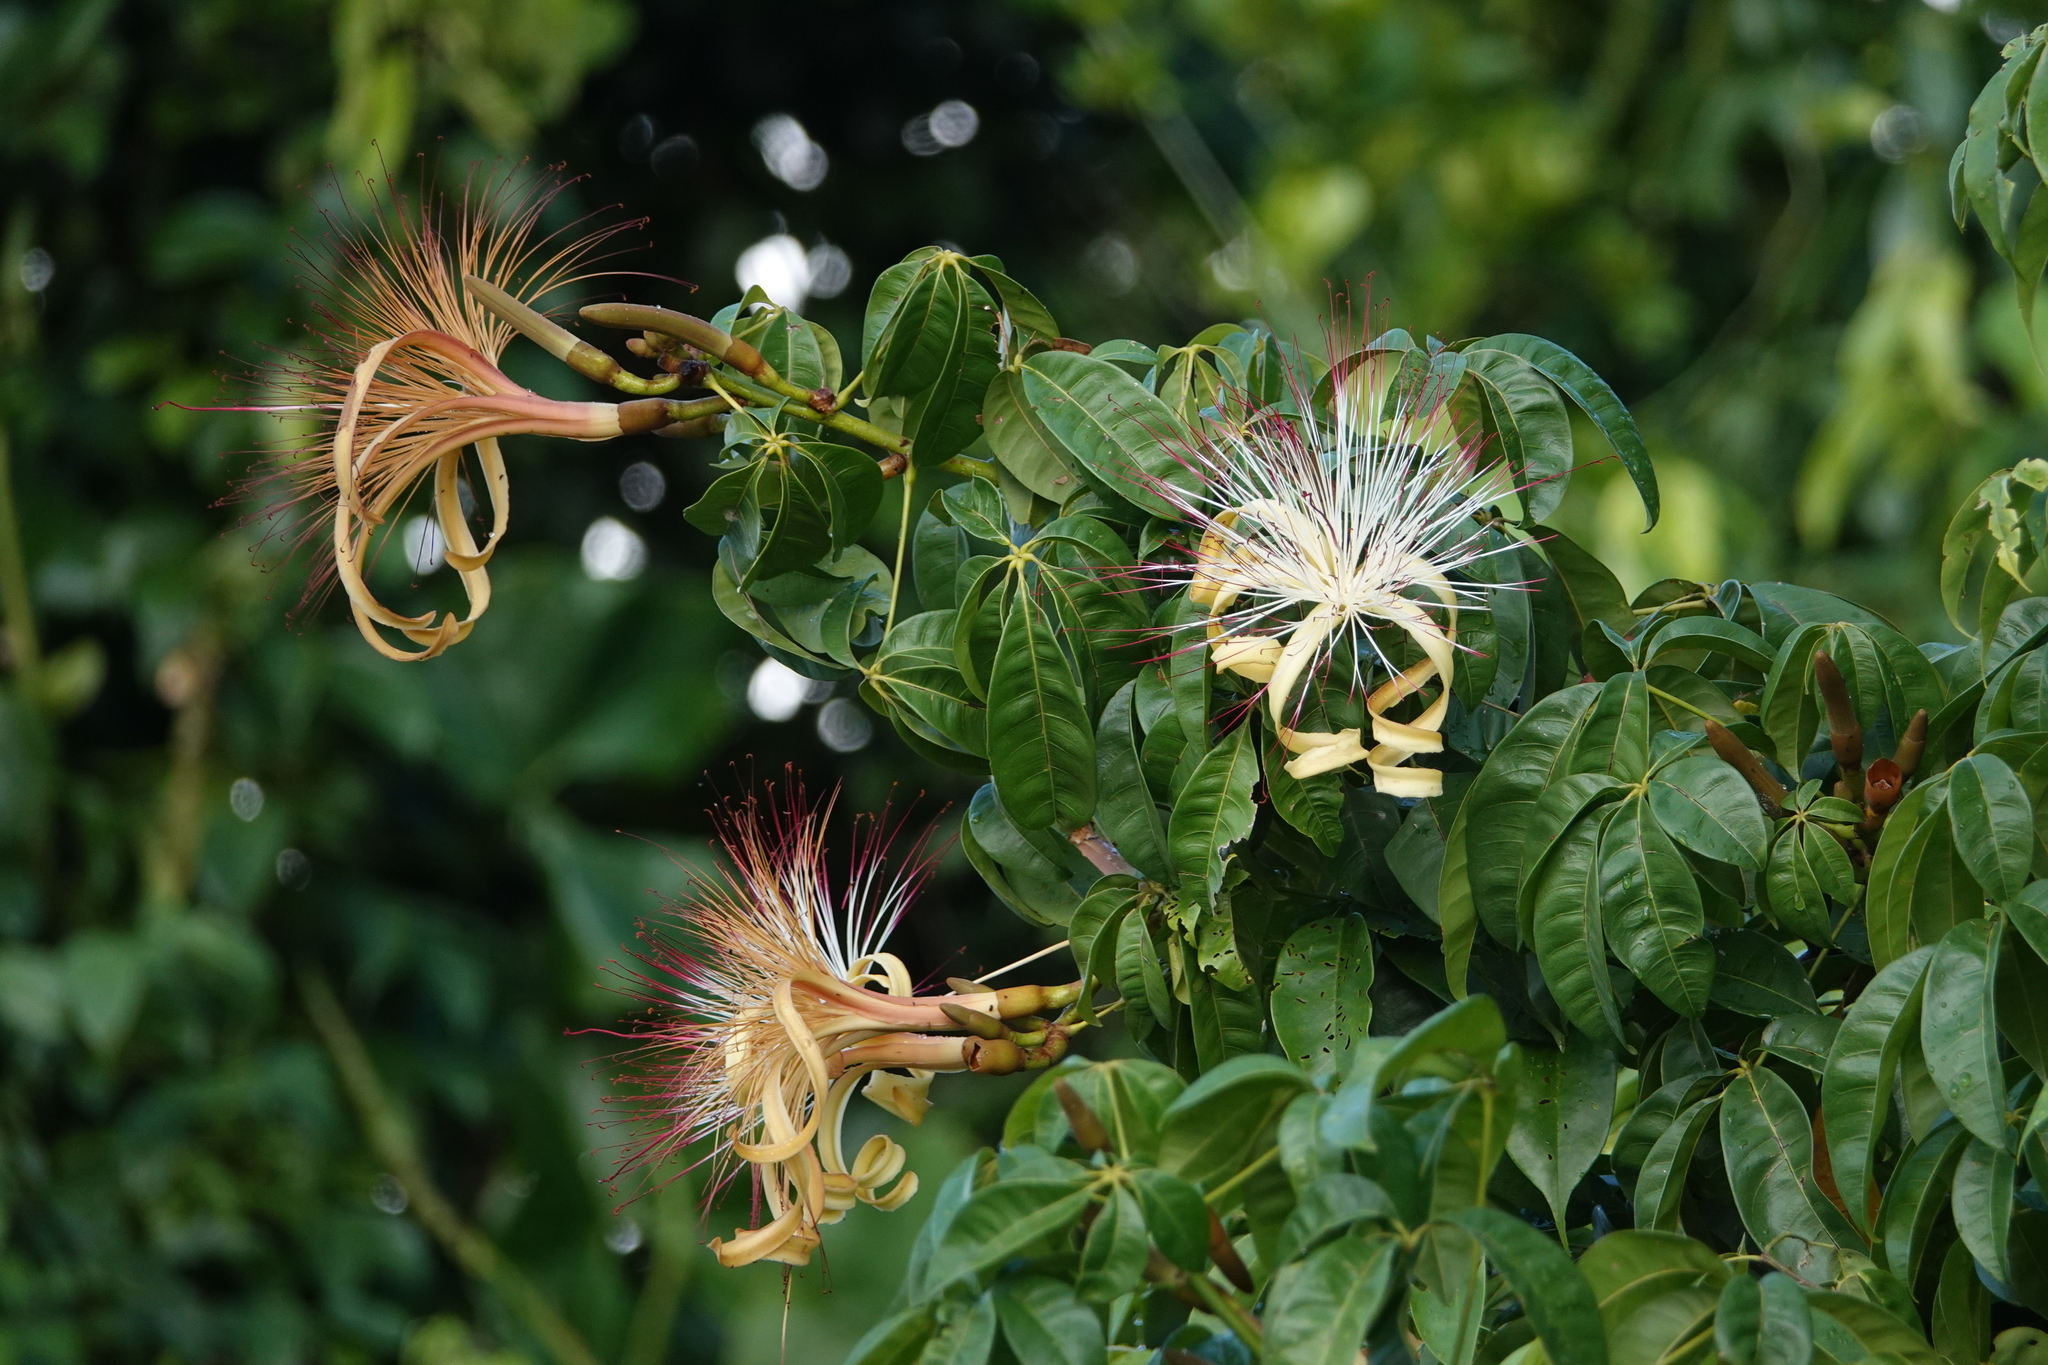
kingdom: Plantae
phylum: Tracheophyta
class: Magnoliopsida
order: Malvales
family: Malvaceae
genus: Pachira
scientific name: Pachira aquatica
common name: Provision-tree
